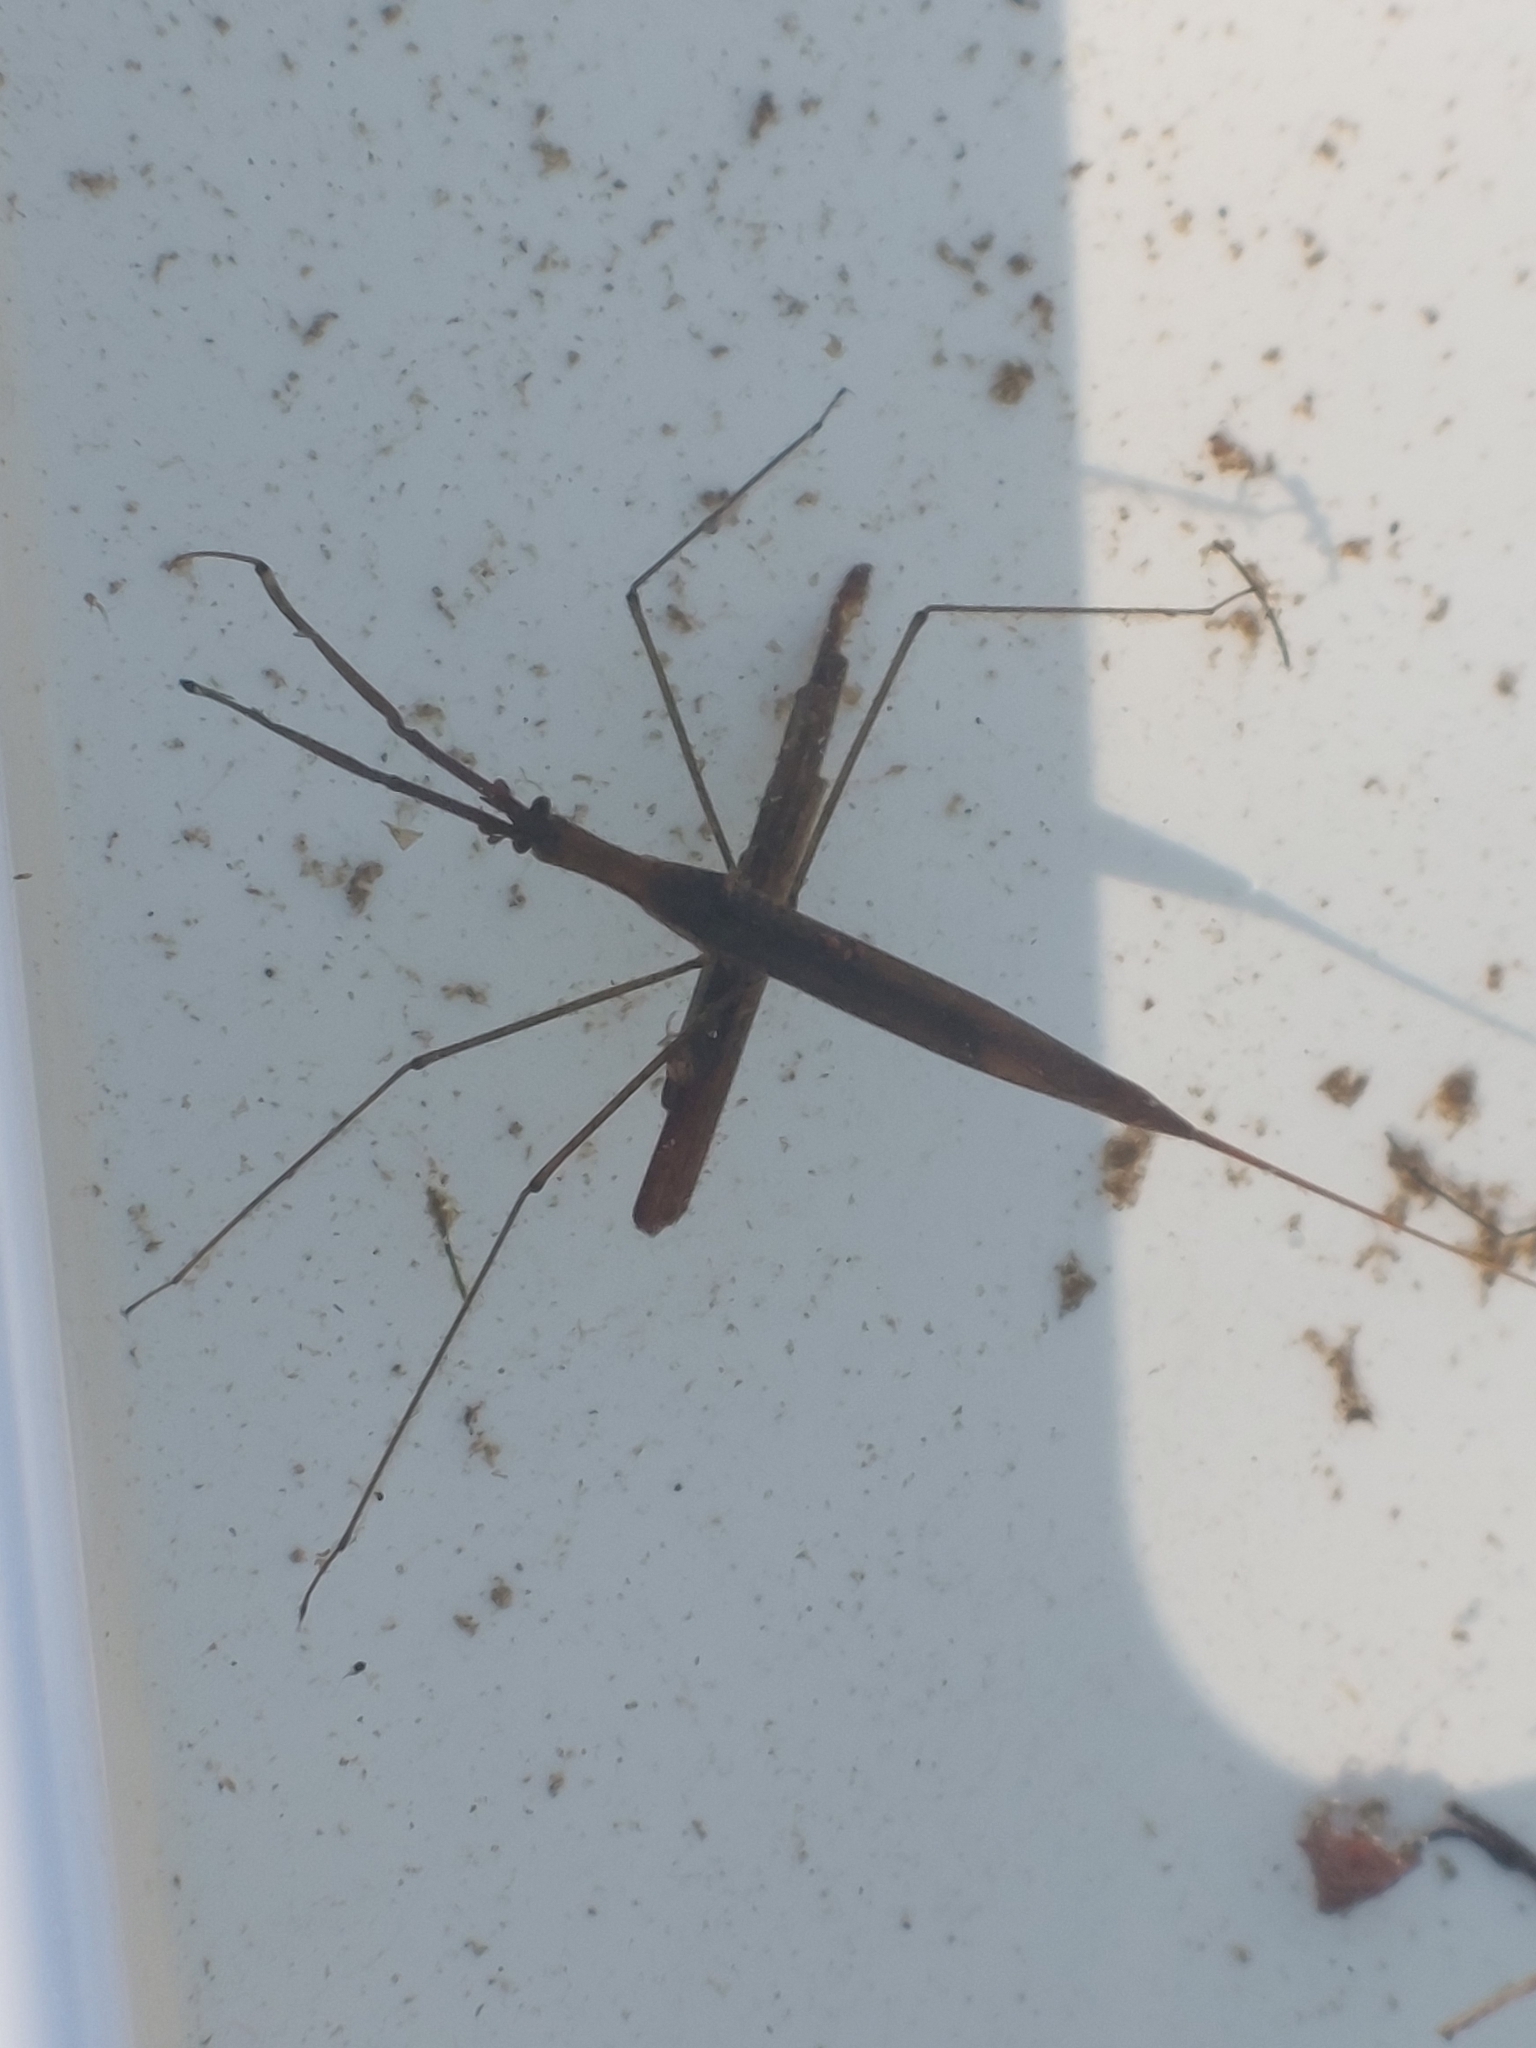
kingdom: Animalia
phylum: Arthropoda
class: Insecta
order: Hemiptera
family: Nepidae
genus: Ranatra
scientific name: Ranatra linearis
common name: Water stick insect
